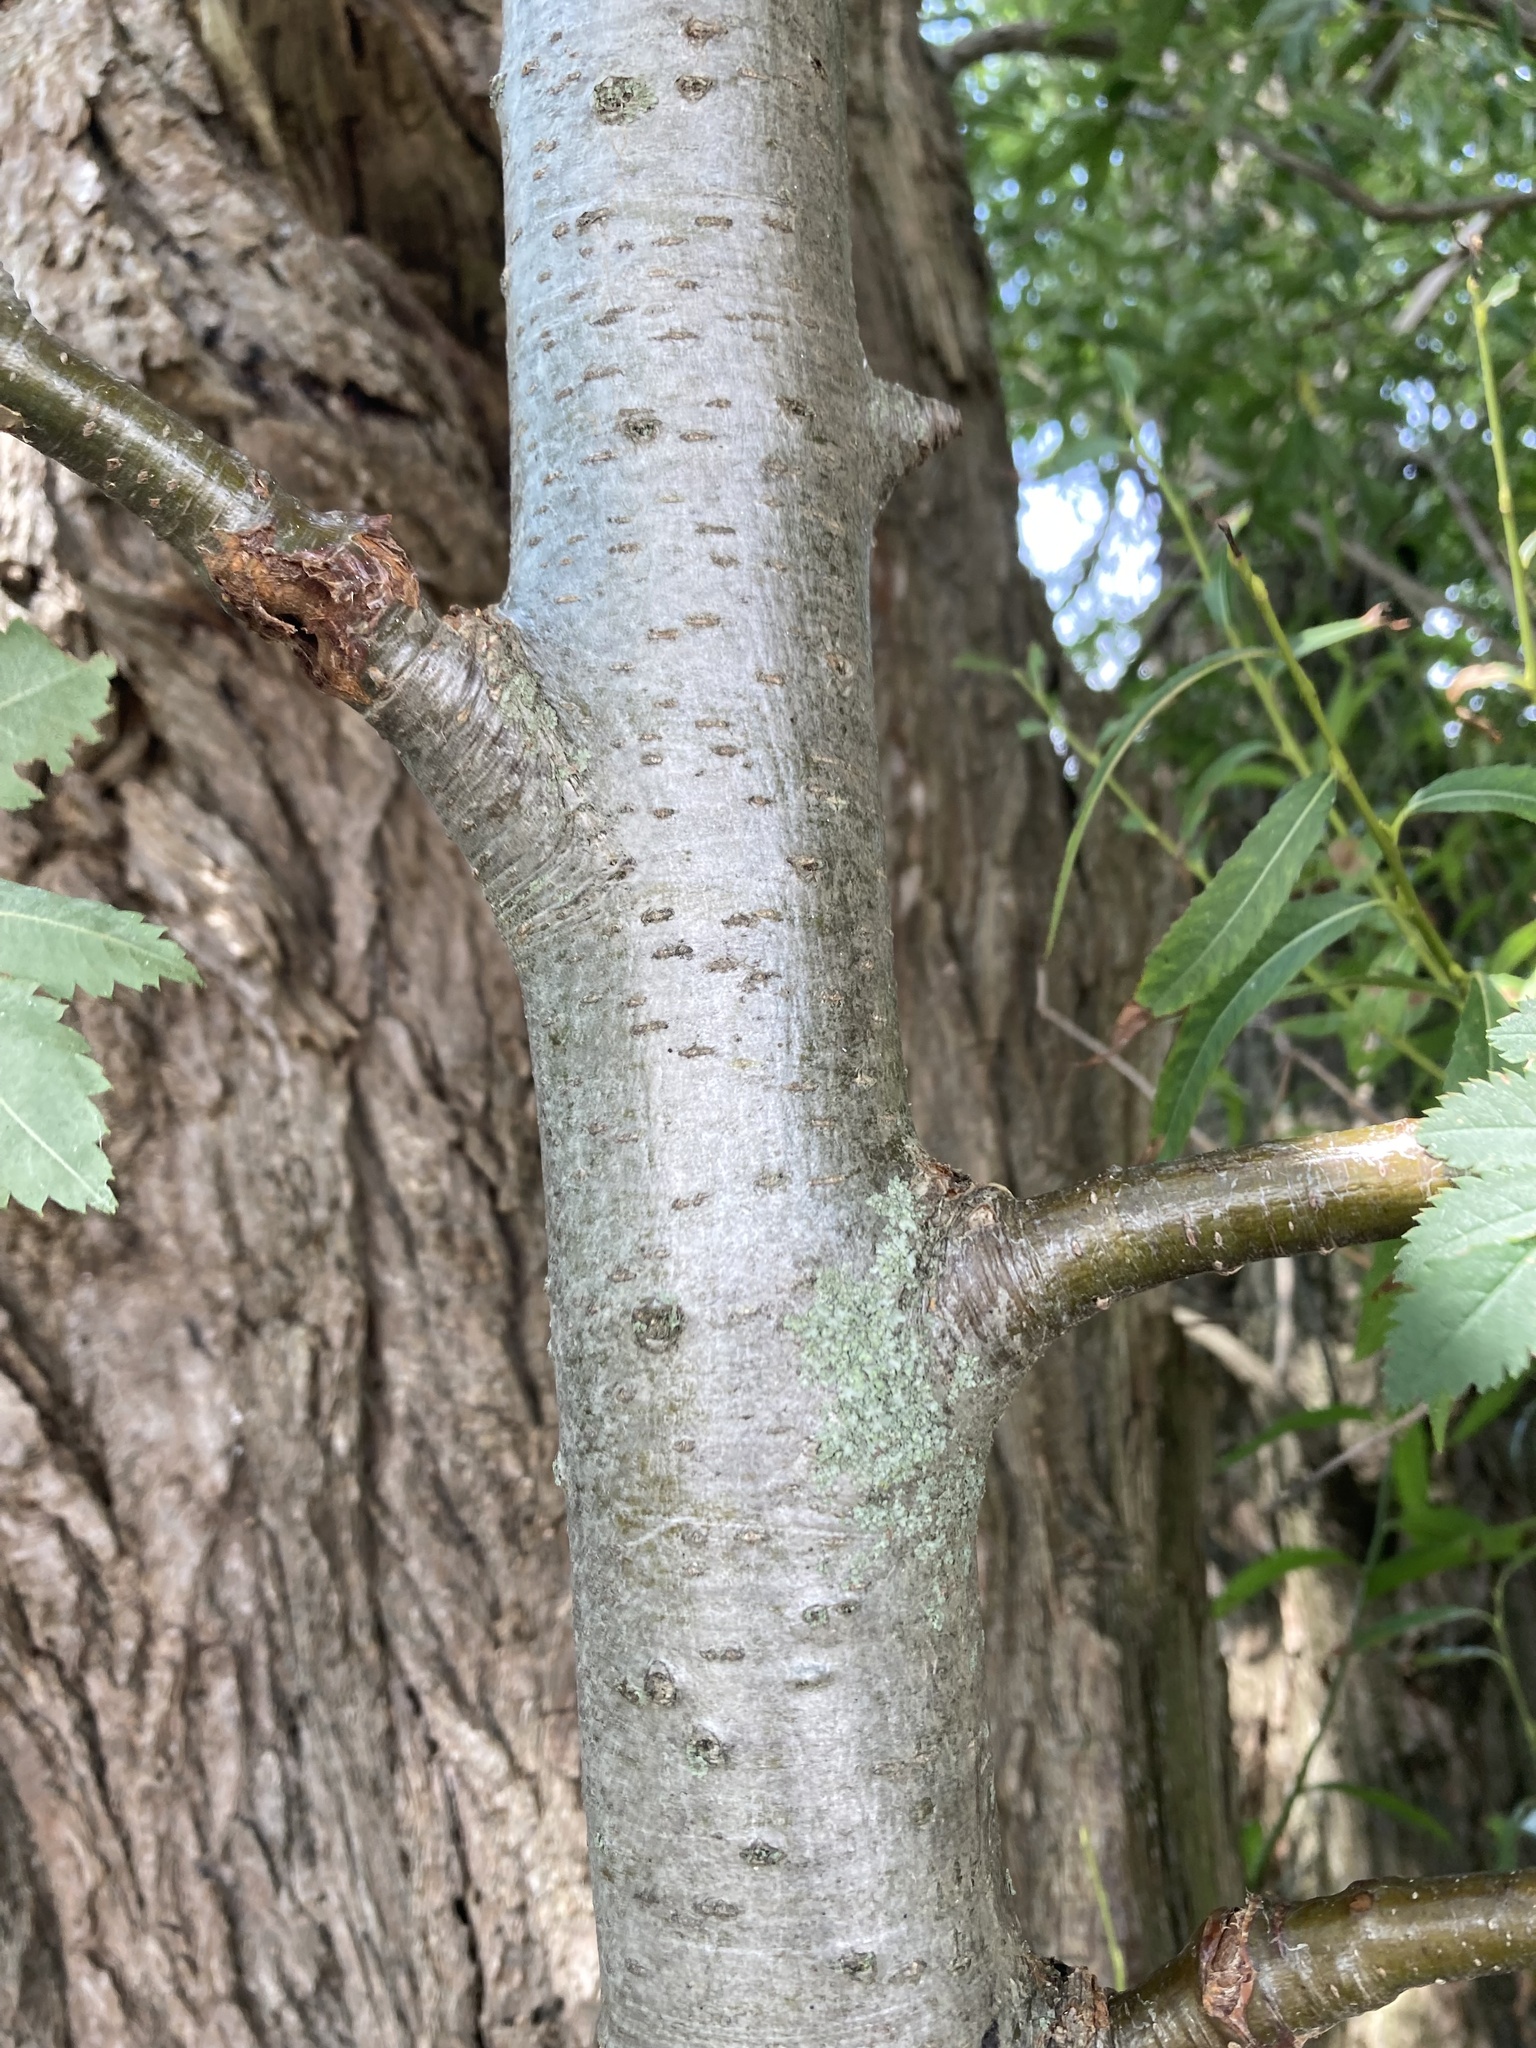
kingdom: Plantae
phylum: Tracheophyta
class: Magnoliopsida
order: Rosales
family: Rosaceae
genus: Sorbus
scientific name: Sorbus aucuparia
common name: Rowan
